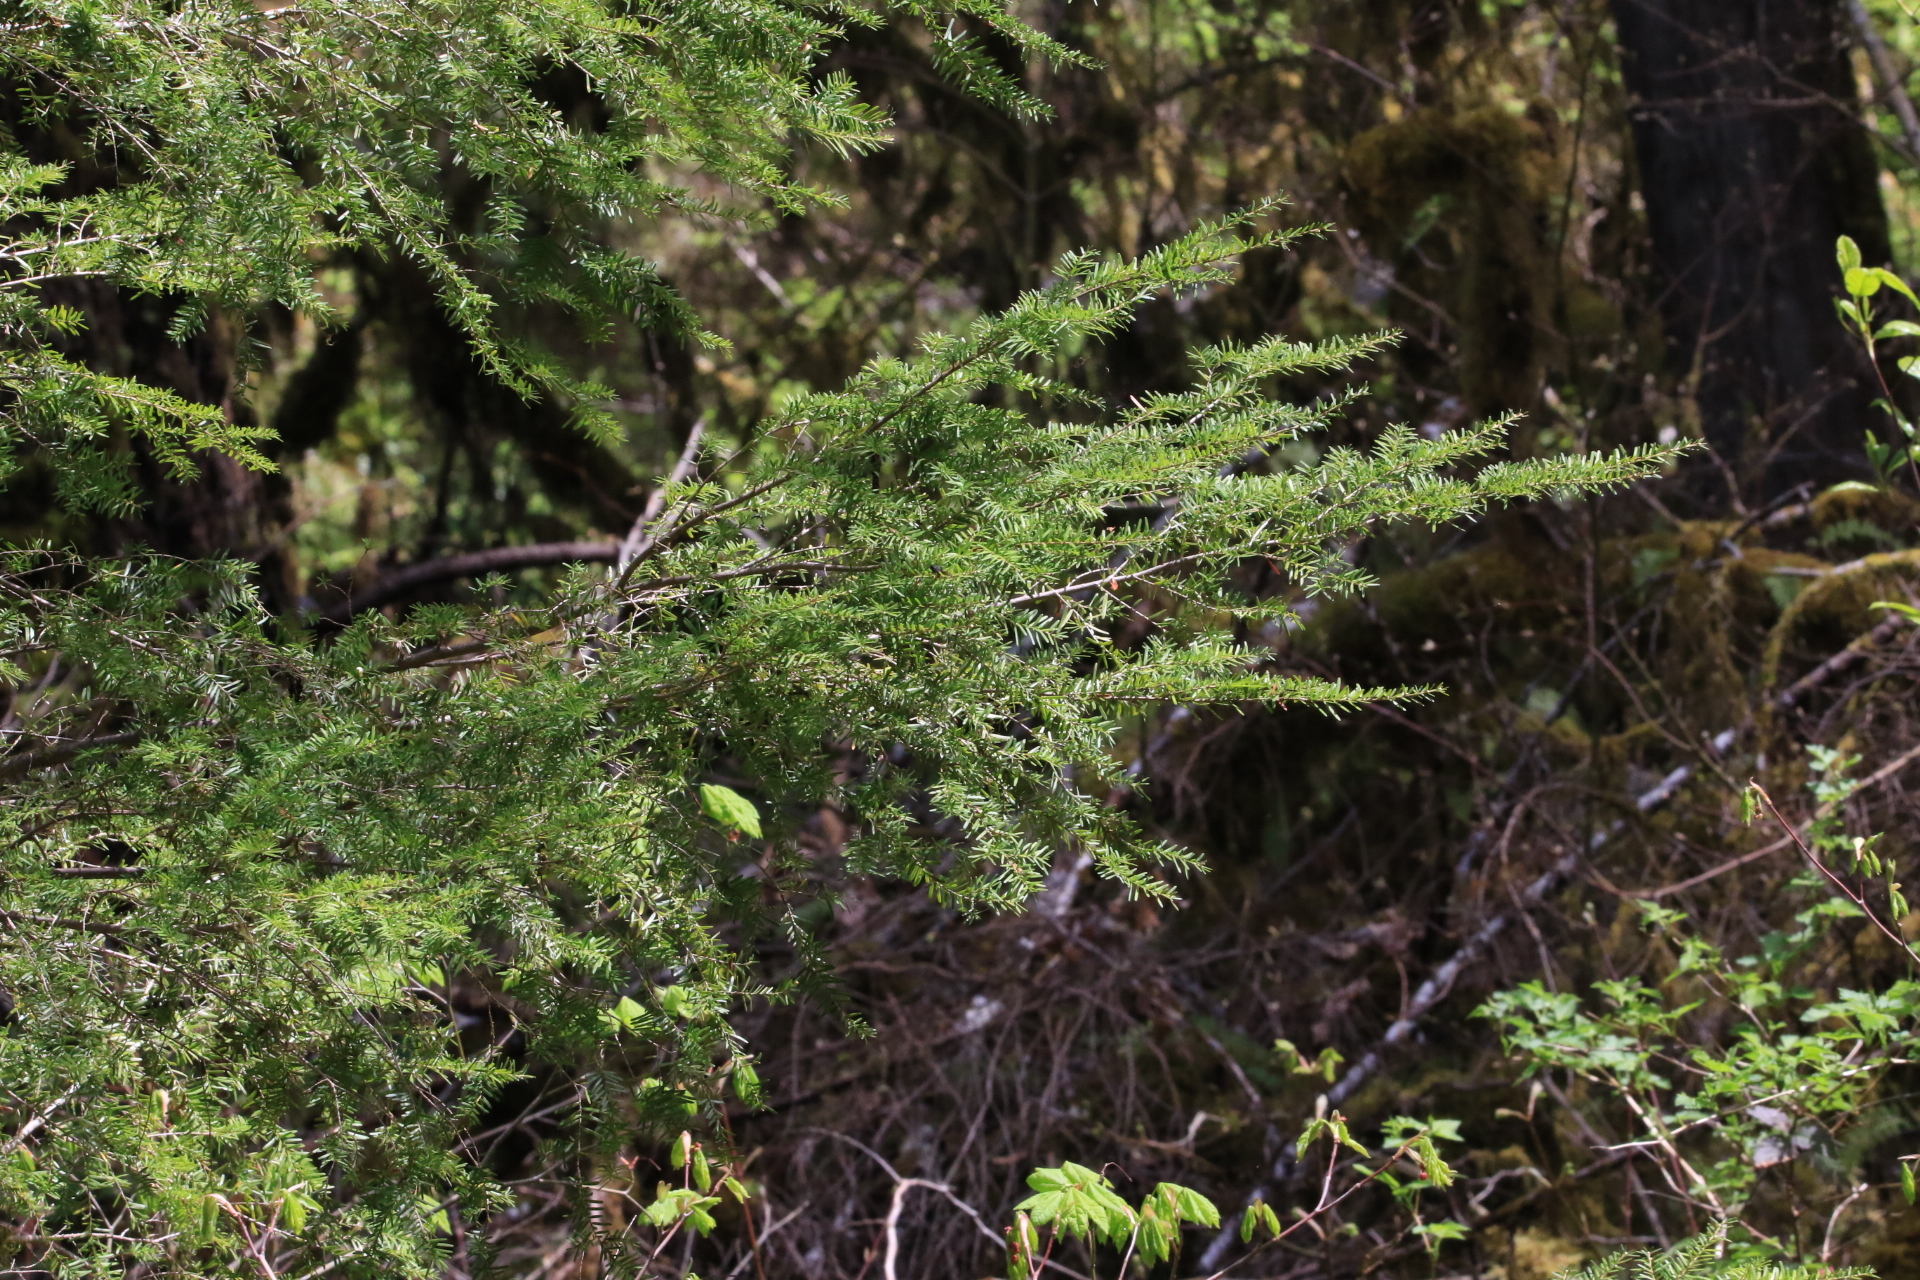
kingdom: Plantae
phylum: Tracheophyta
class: Pinopsida
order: Pinales
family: Pinaceae
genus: Tsuga
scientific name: Tsuga heterophylla
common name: Western hemlock
